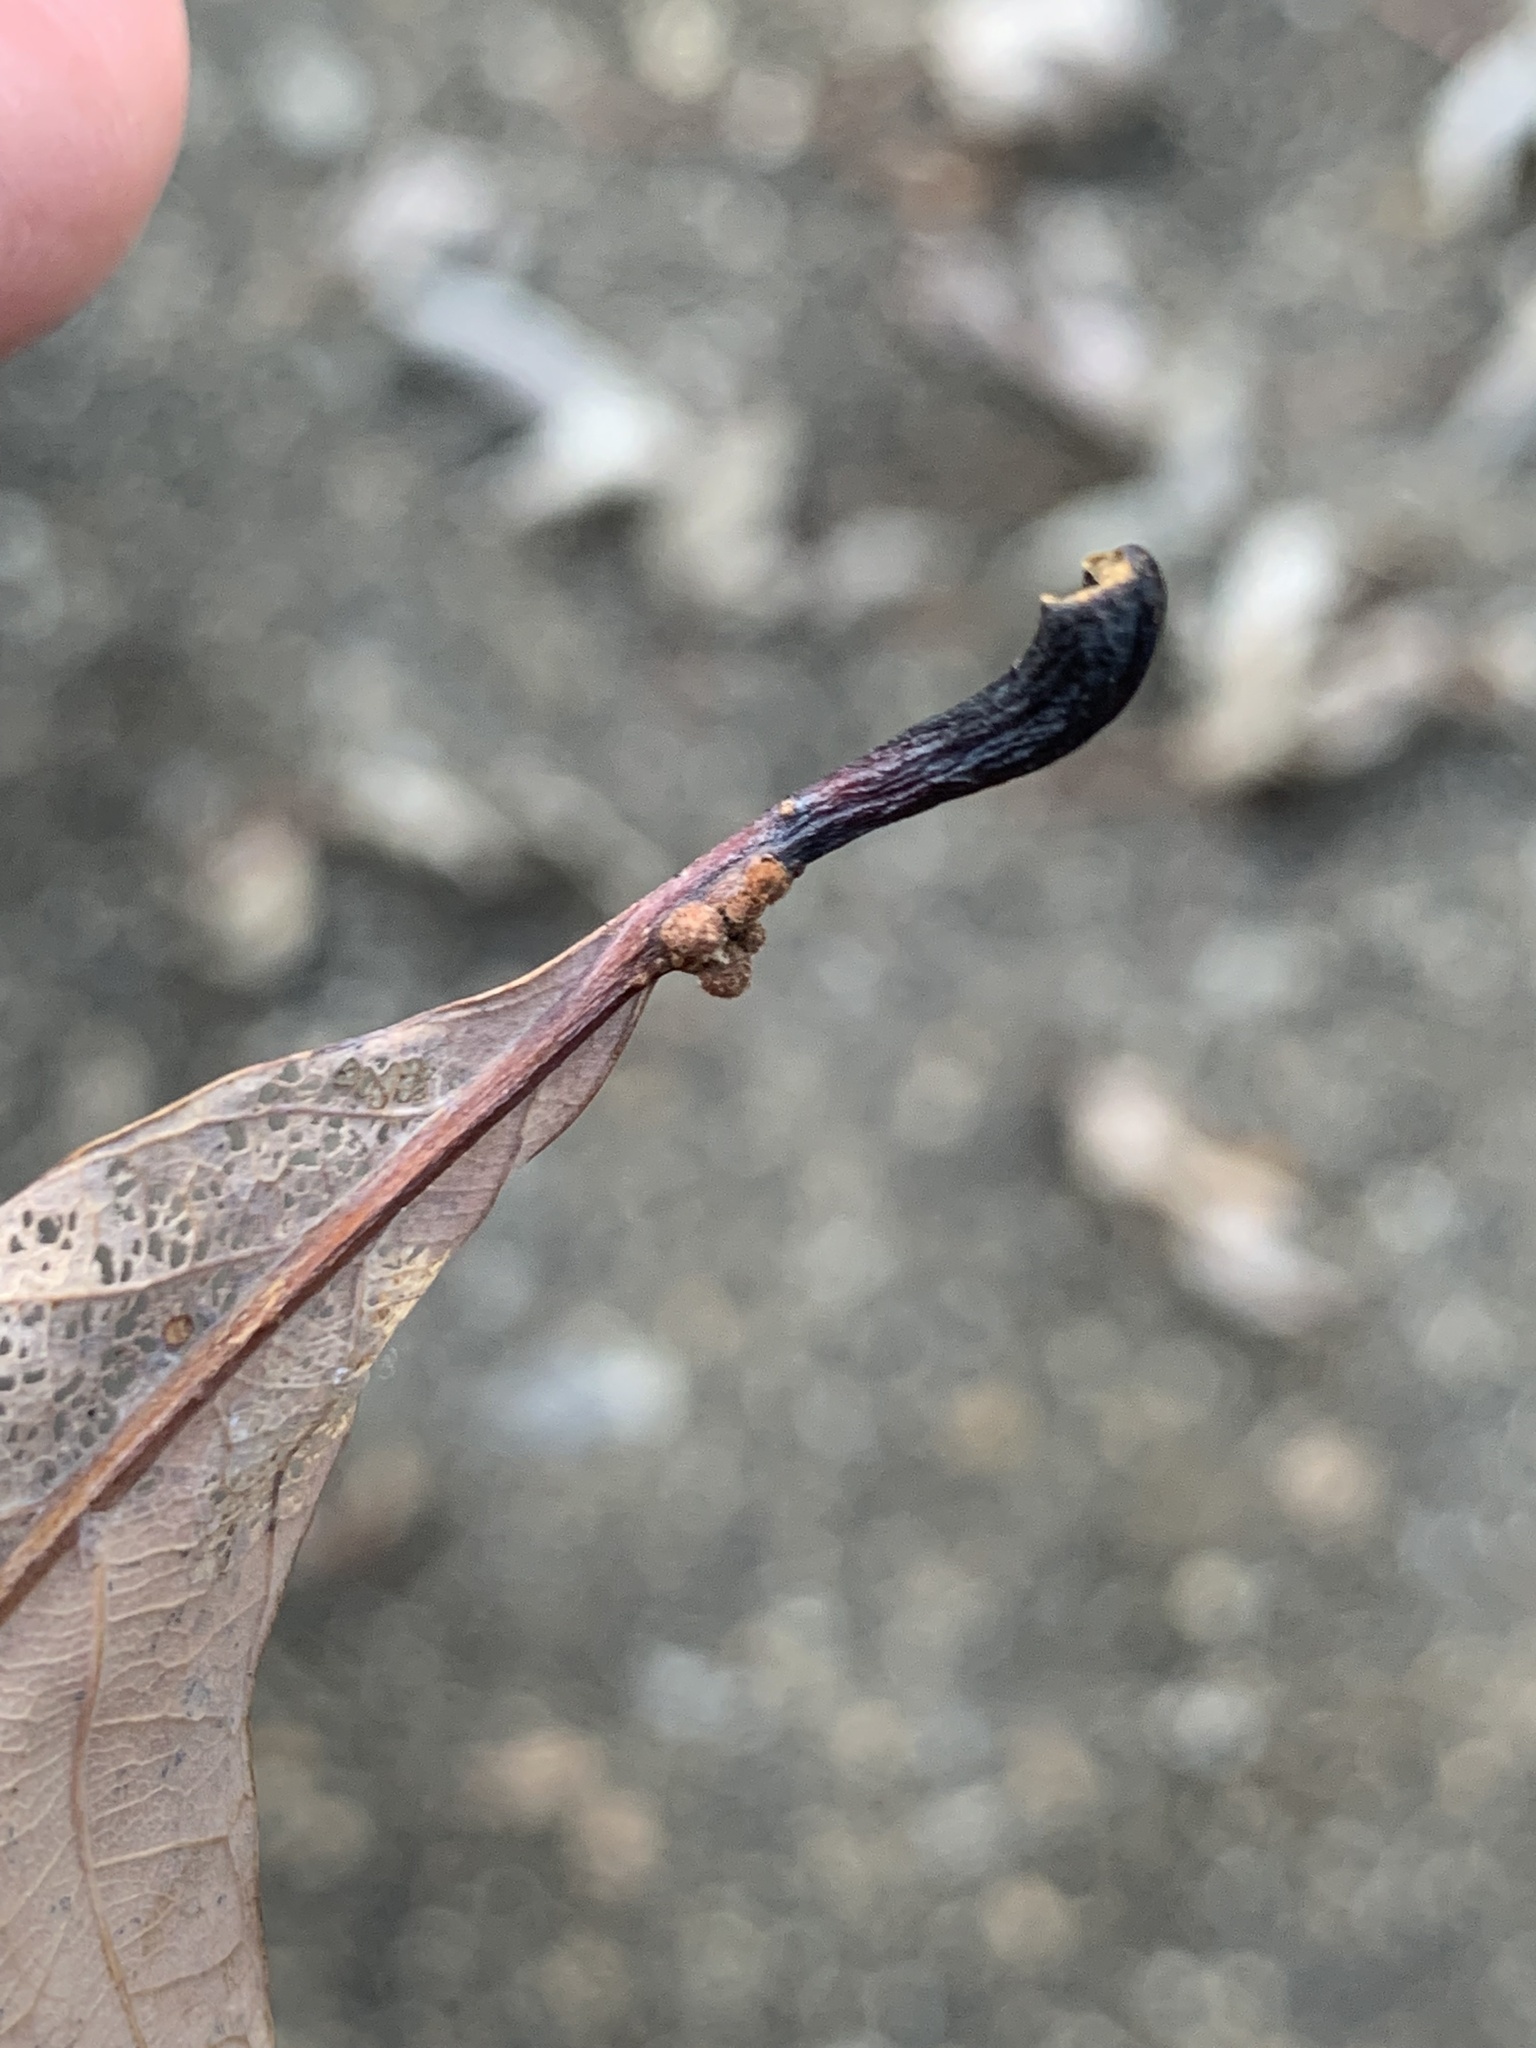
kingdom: Animalia
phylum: Arthropoda
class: Insecta
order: Hymenoptera
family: Cynipidae
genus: Andricus
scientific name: Andricus
